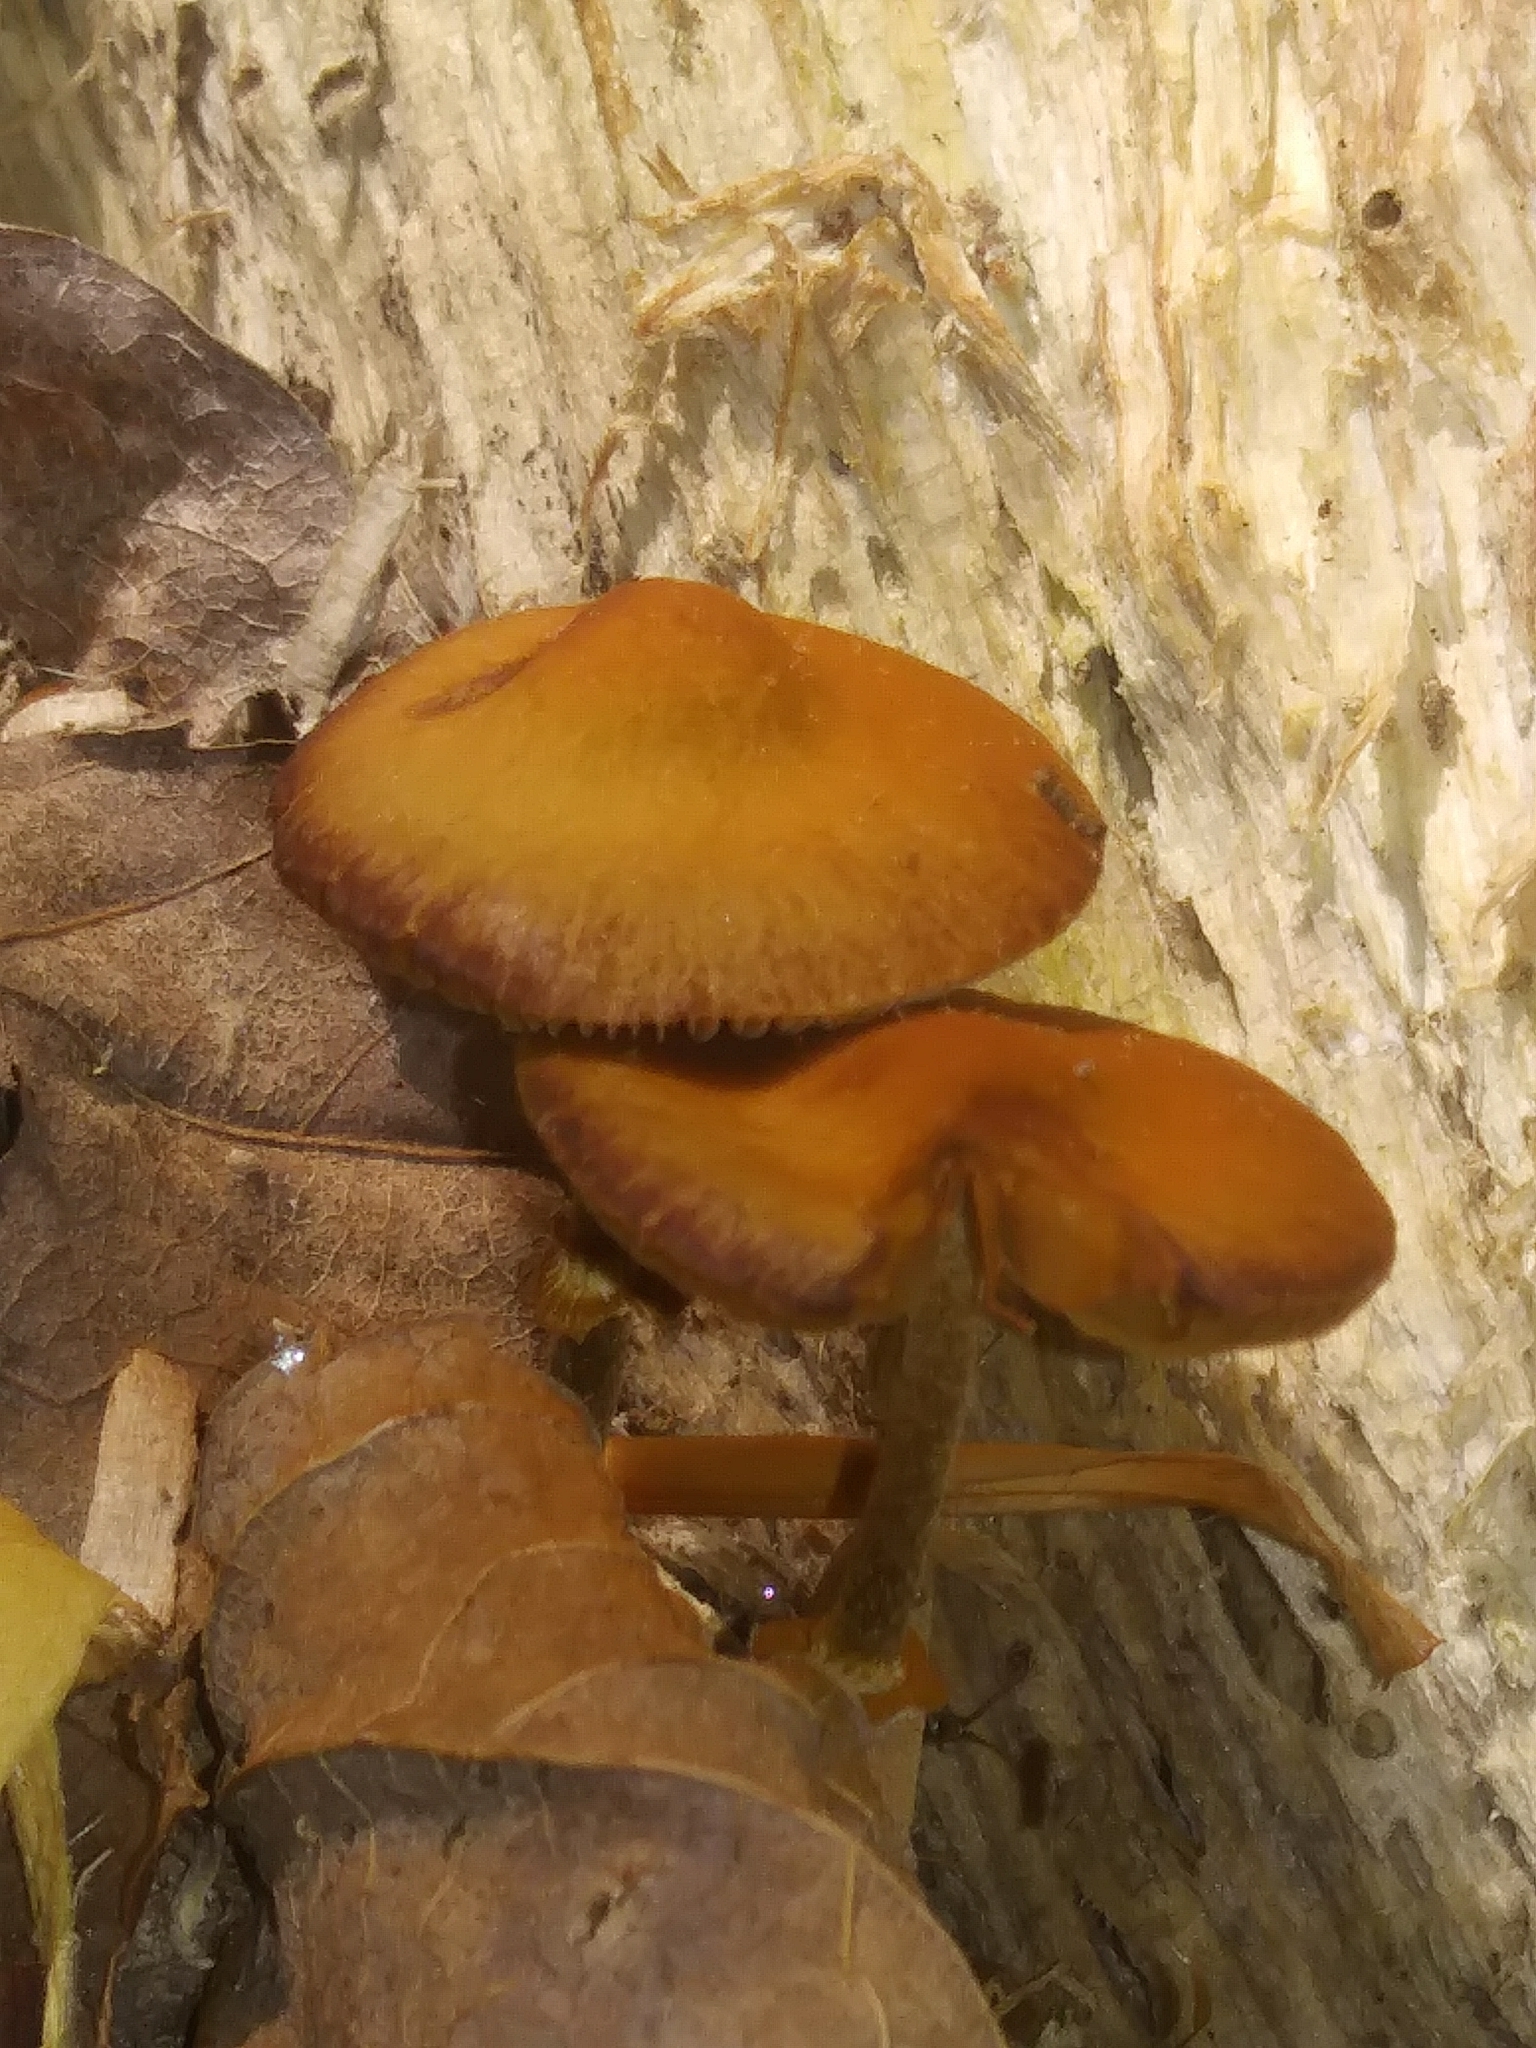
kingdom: Fungi
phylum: Basidiomycota
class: Agaricomycetes
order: Agaricales
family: Bolbitiaceae
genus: Conocybe
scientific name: Conocybe rugosa
